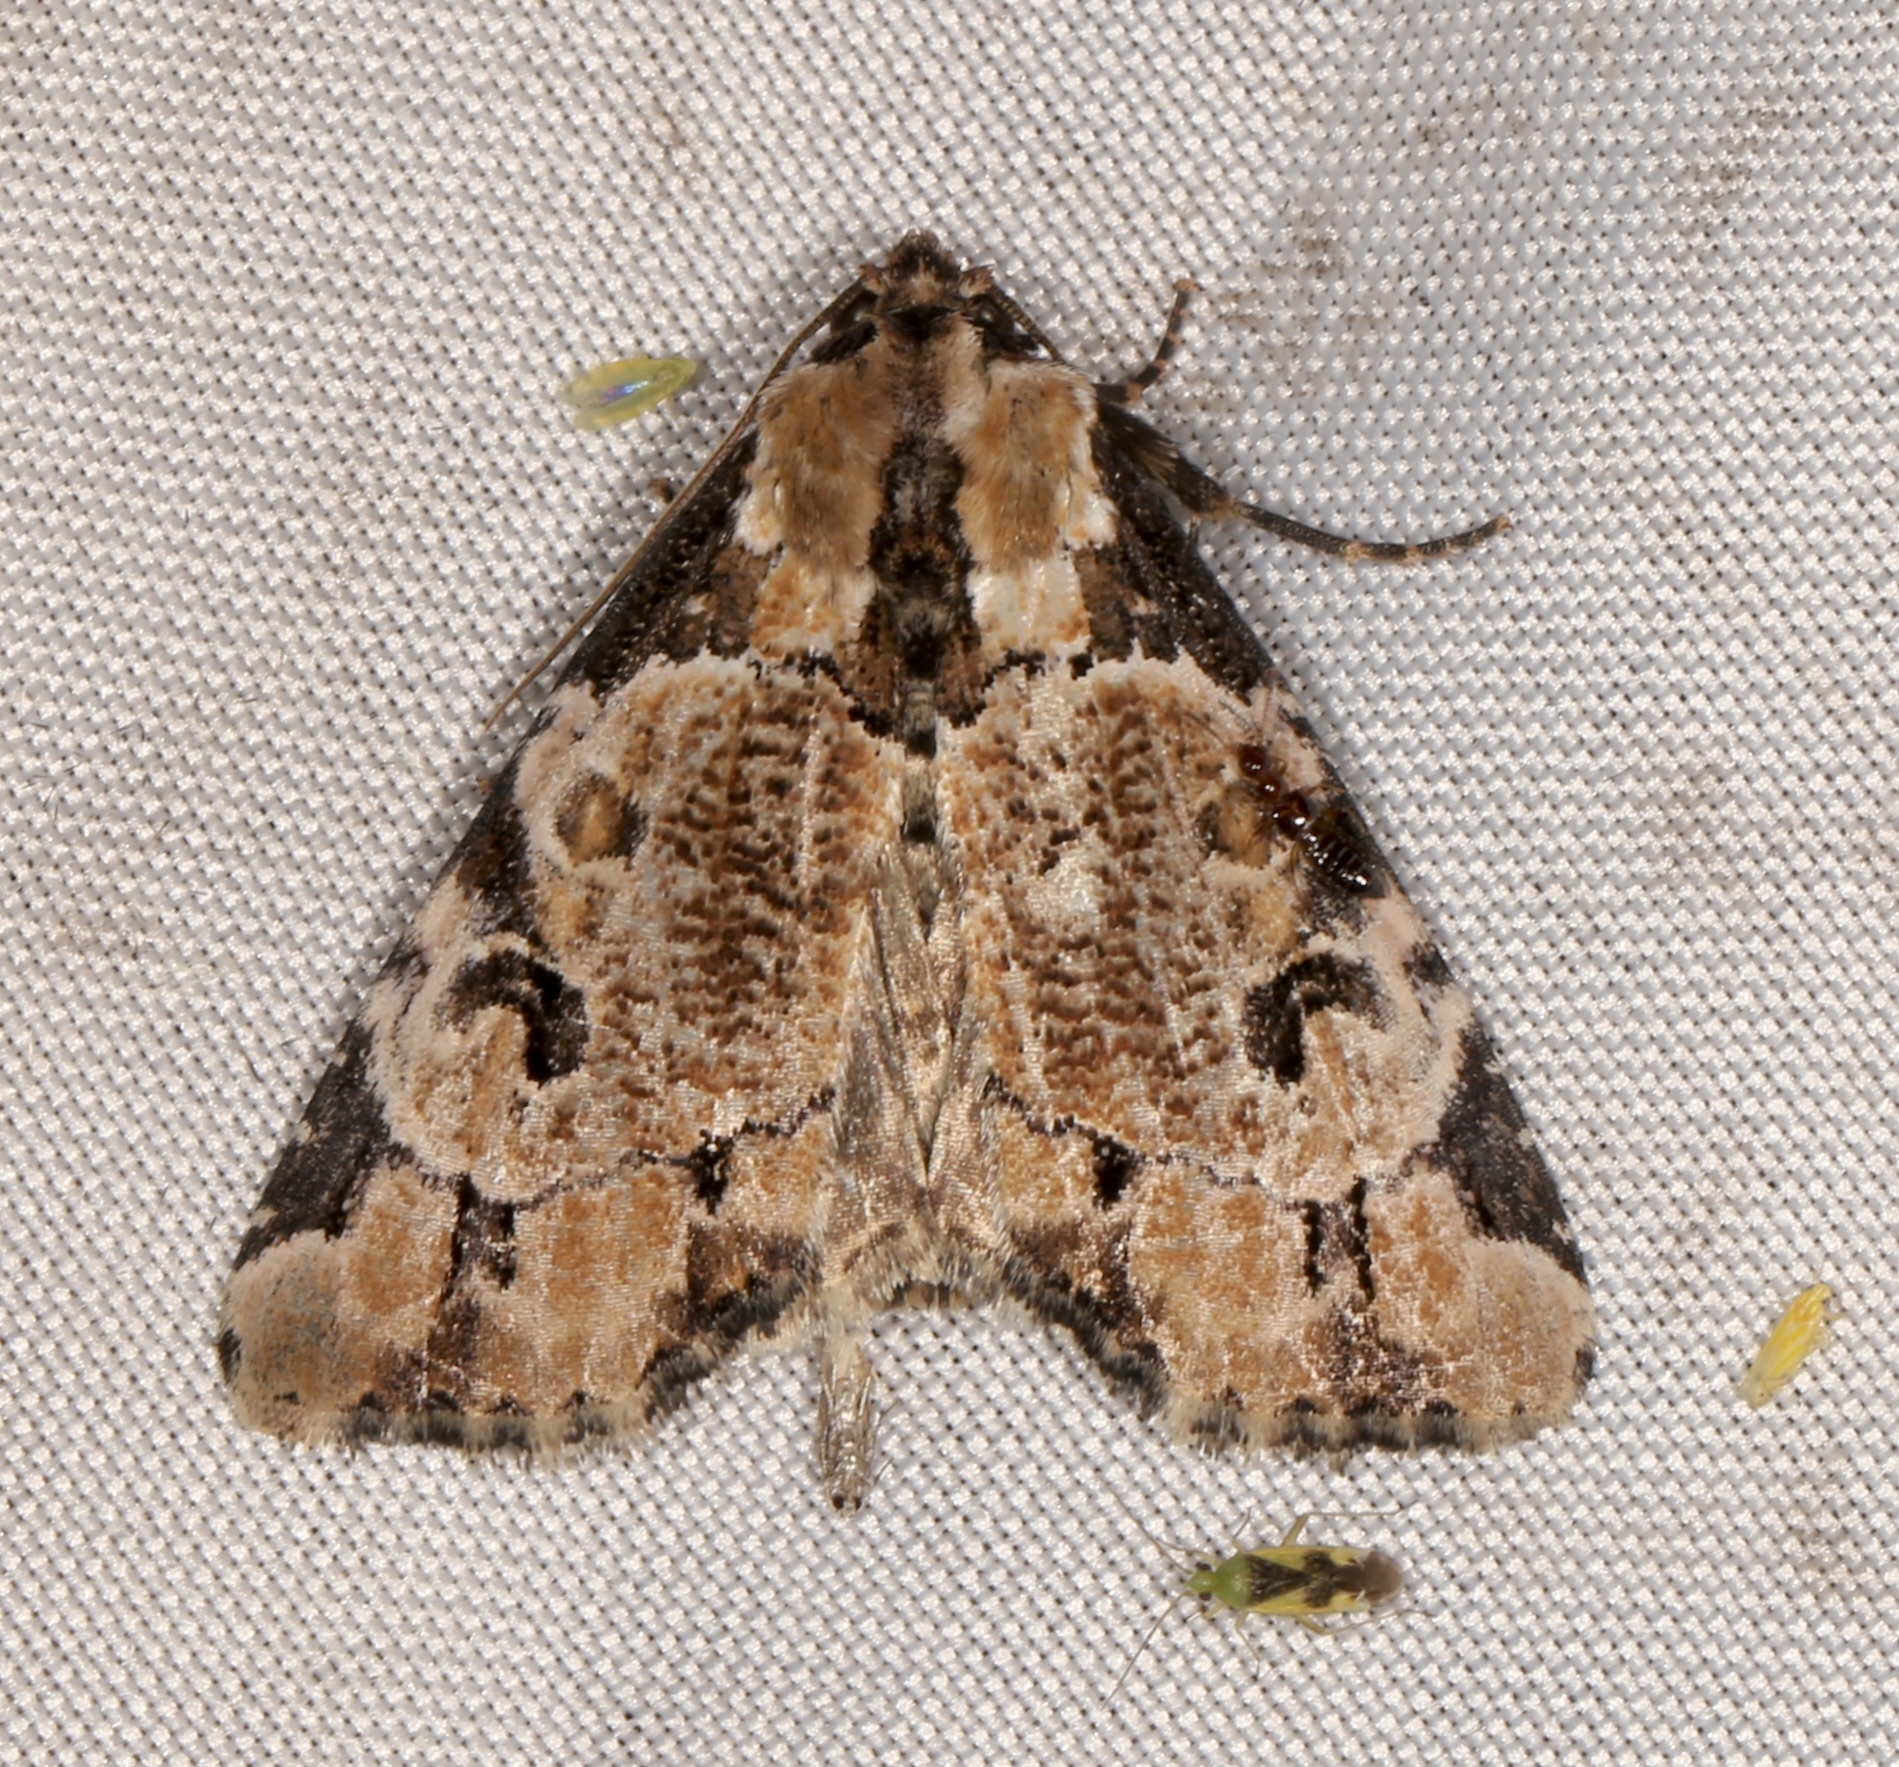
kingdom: Animalia
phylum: Arthropoda
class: Insecta
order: Lepidoptera
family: Noctuidae
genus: Stibaera
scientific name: Stibaera thyatiroides
